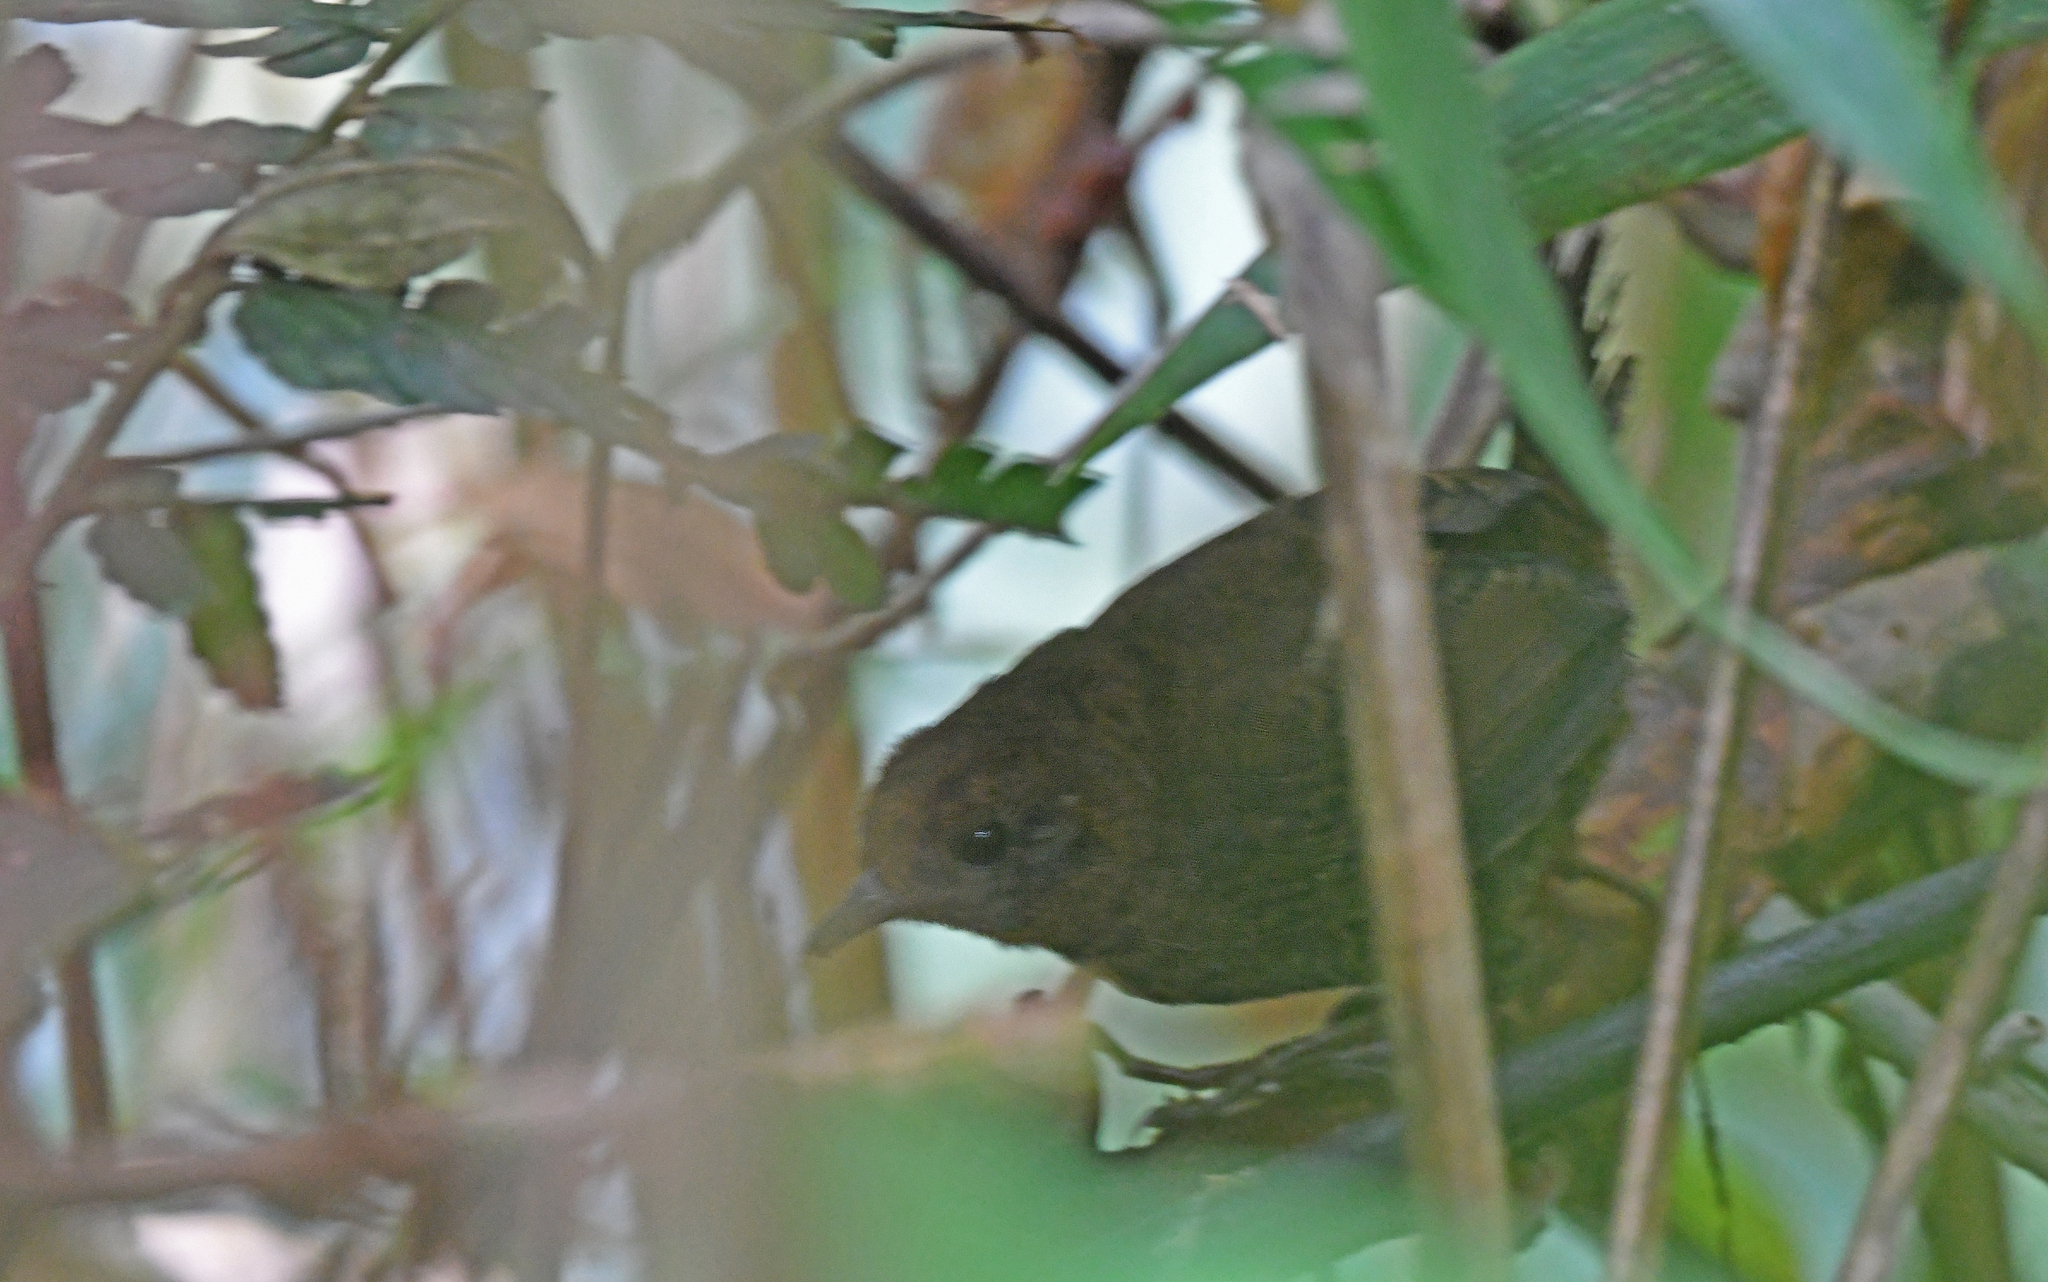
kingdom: Animalia
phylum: Chordata
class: Aves
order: Passeriformes
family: Rhinocryptidae
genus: Scytalopus
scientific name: Scytalopus stilesi
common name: Stiles's tapaculo
